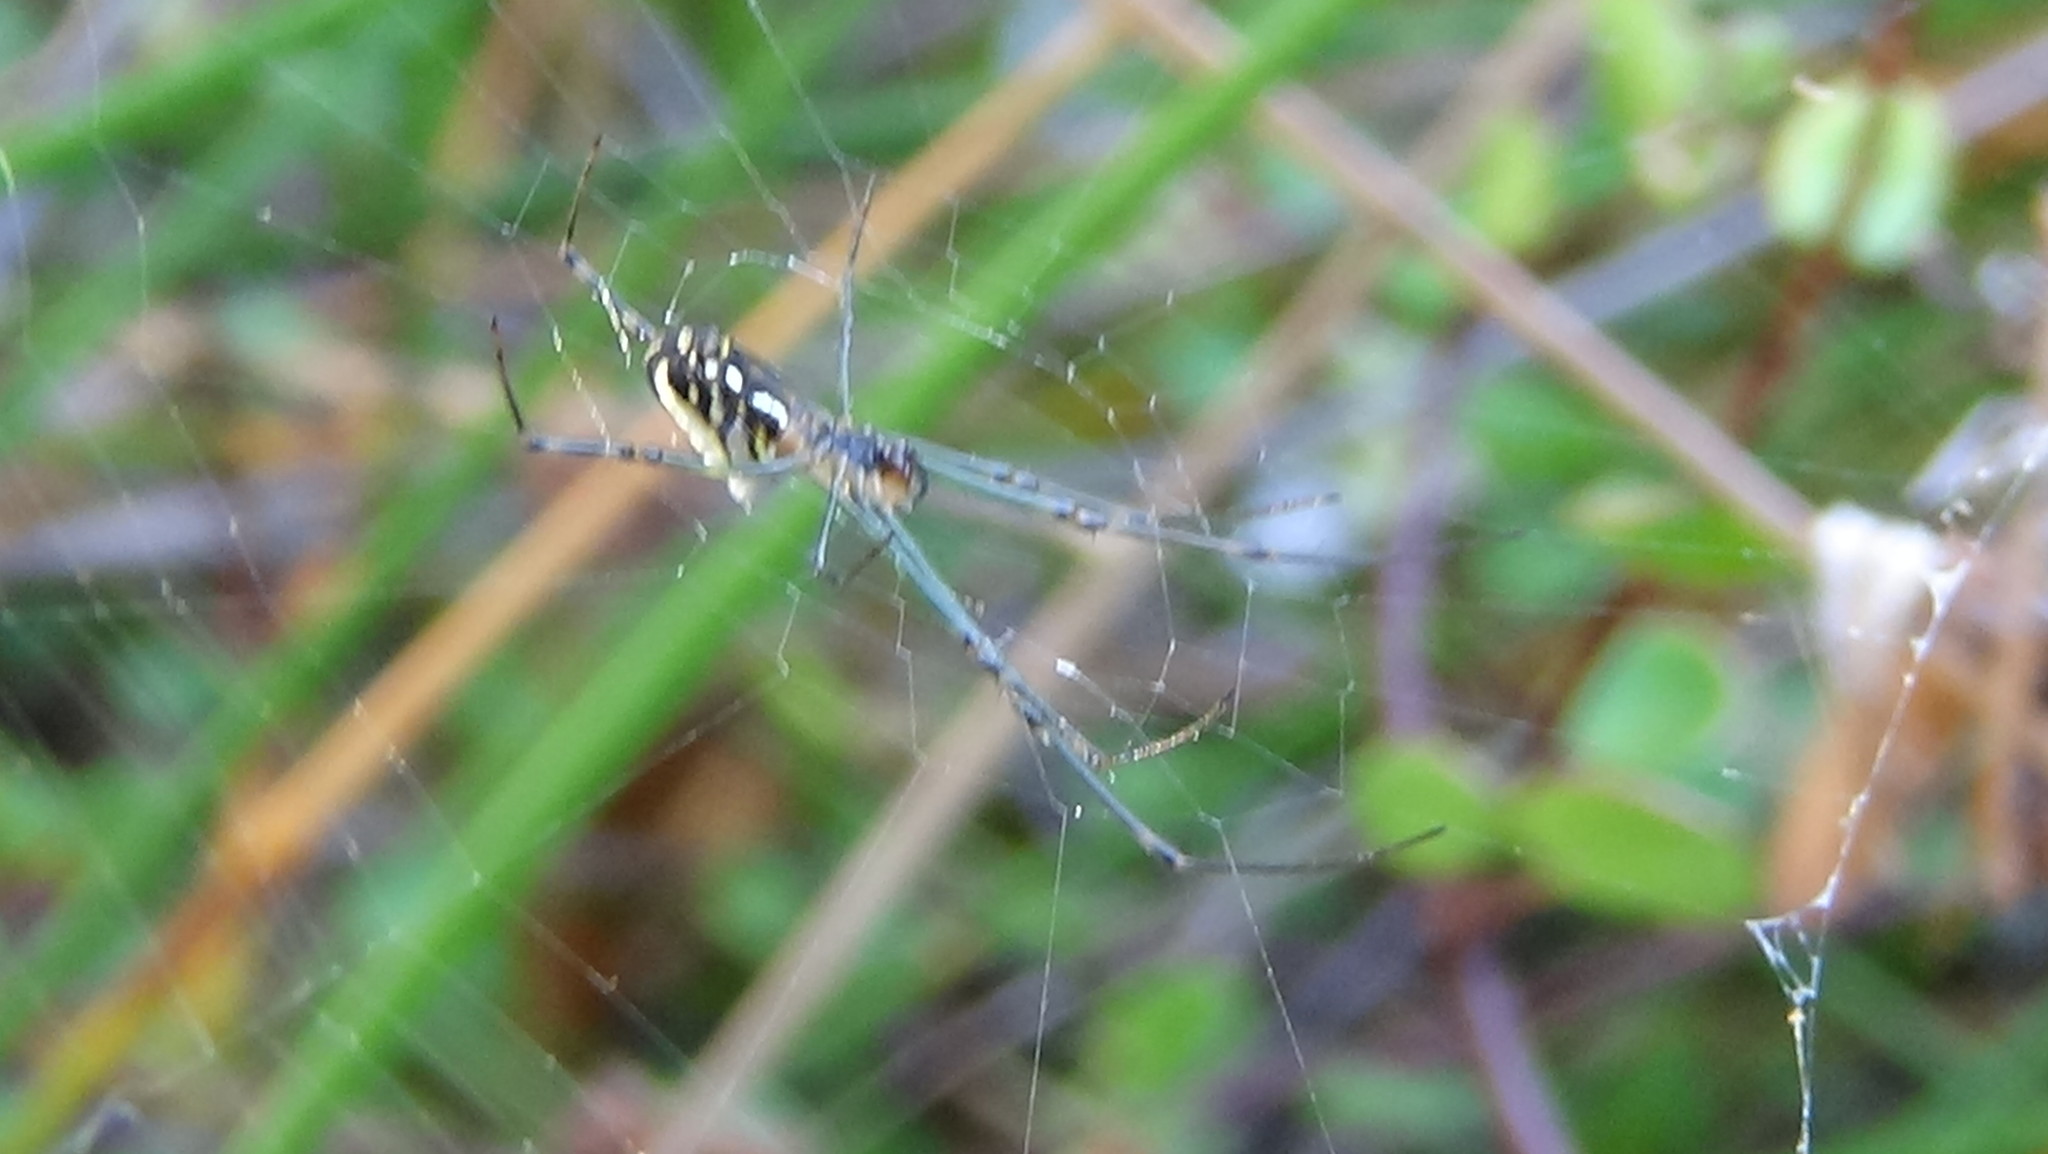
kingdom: Animalia
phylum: Arthropoda
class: Arachnida
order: Araneae
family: Tetragnathidae
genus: Leucauge
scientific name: Leucauge dromedaria
